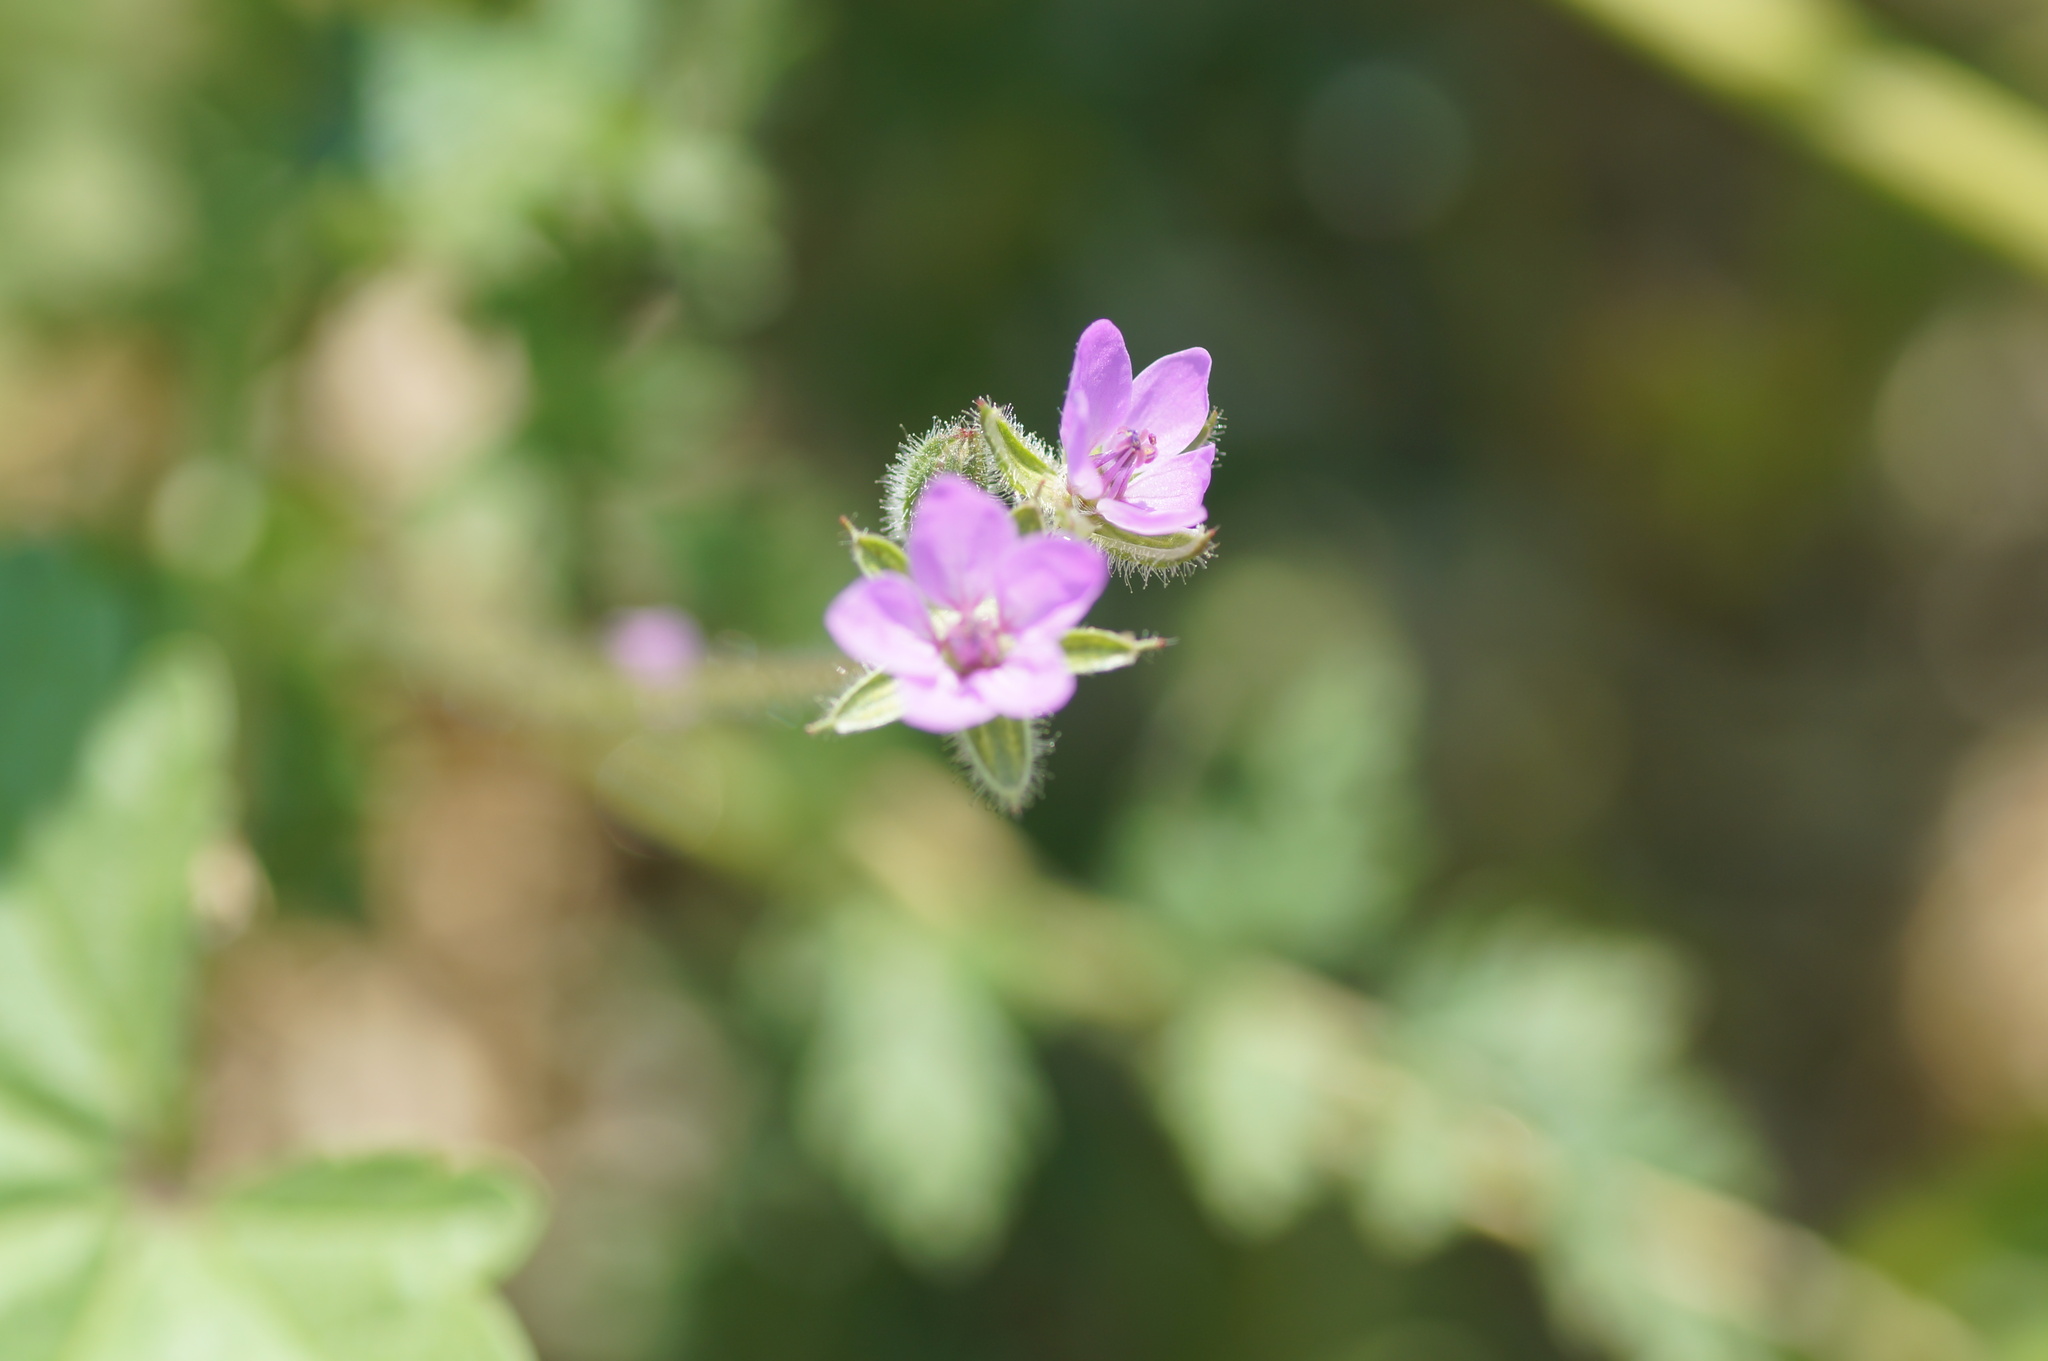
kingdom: Plantae
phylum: Tracheophyta
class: Magnoliopsida
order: Geraniales
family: Geraniaceae
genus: Erodium
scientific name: Erodium cicutarium
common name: Common stork's-bill
